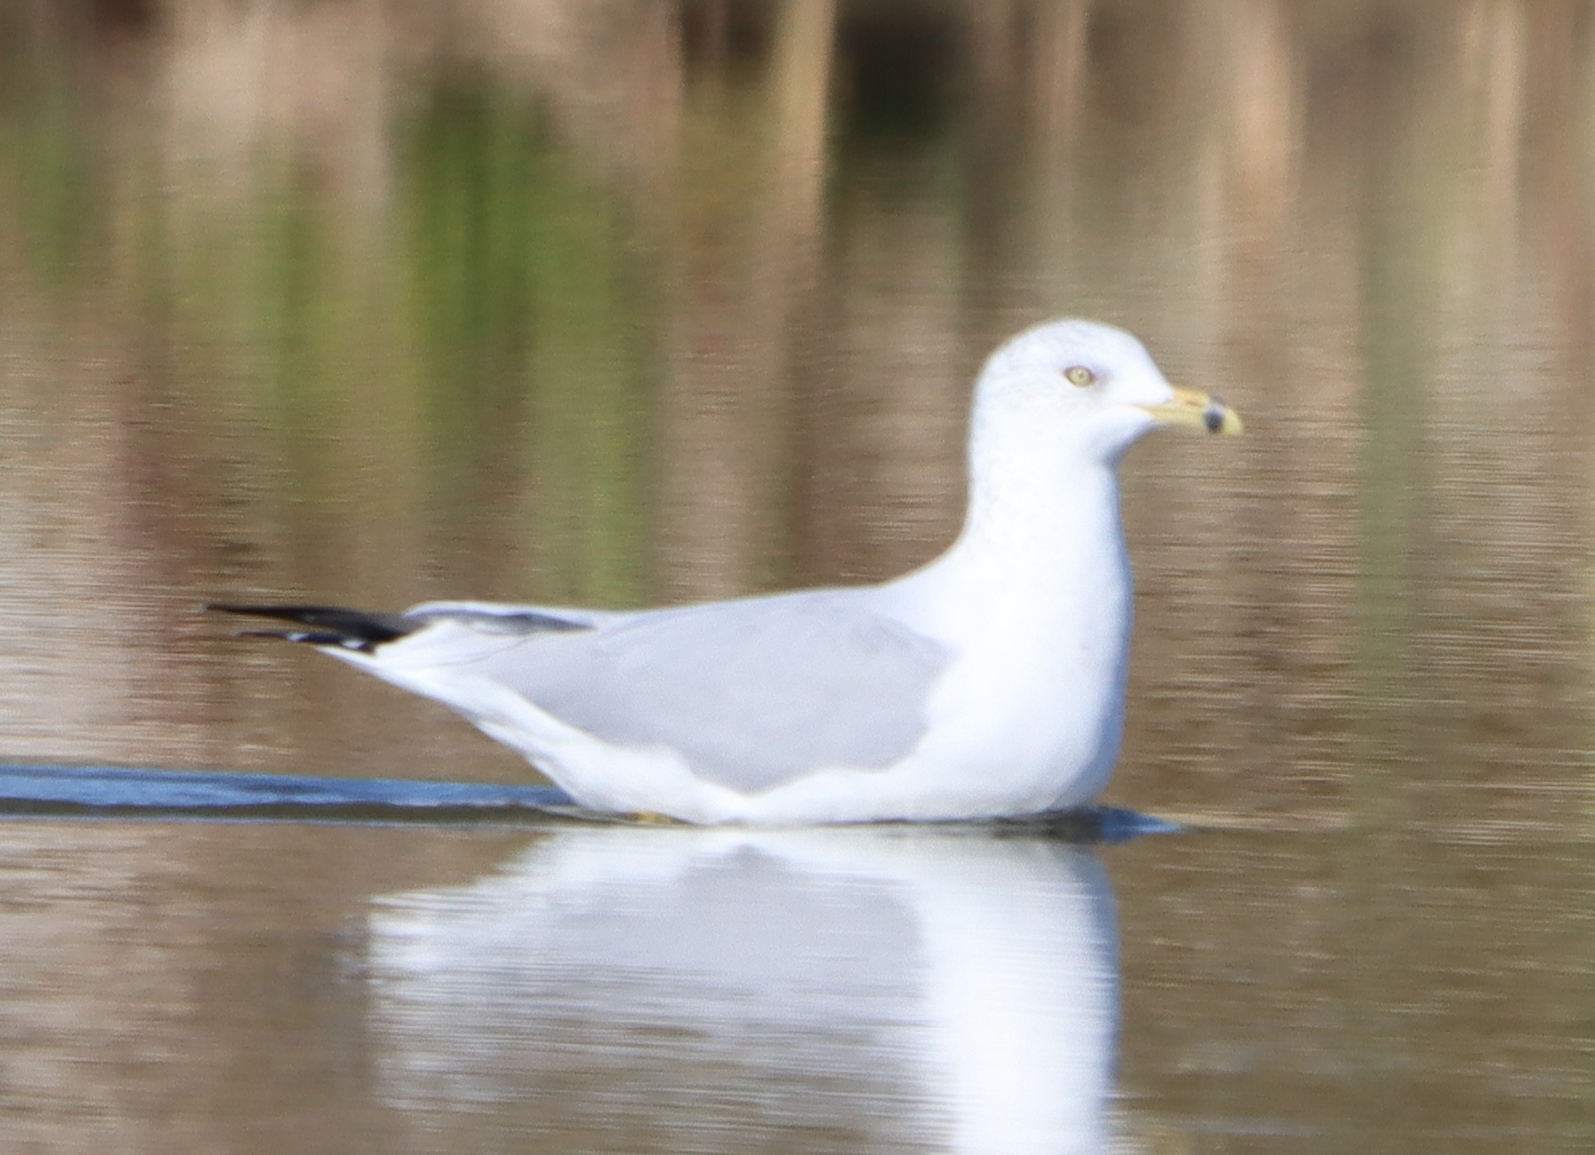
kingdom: Animalia
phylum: Chordata
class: Aves
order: Charadriiformes
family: Laridae
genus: Larus
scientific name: Larus delawarensis
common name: Ring-billed gull
